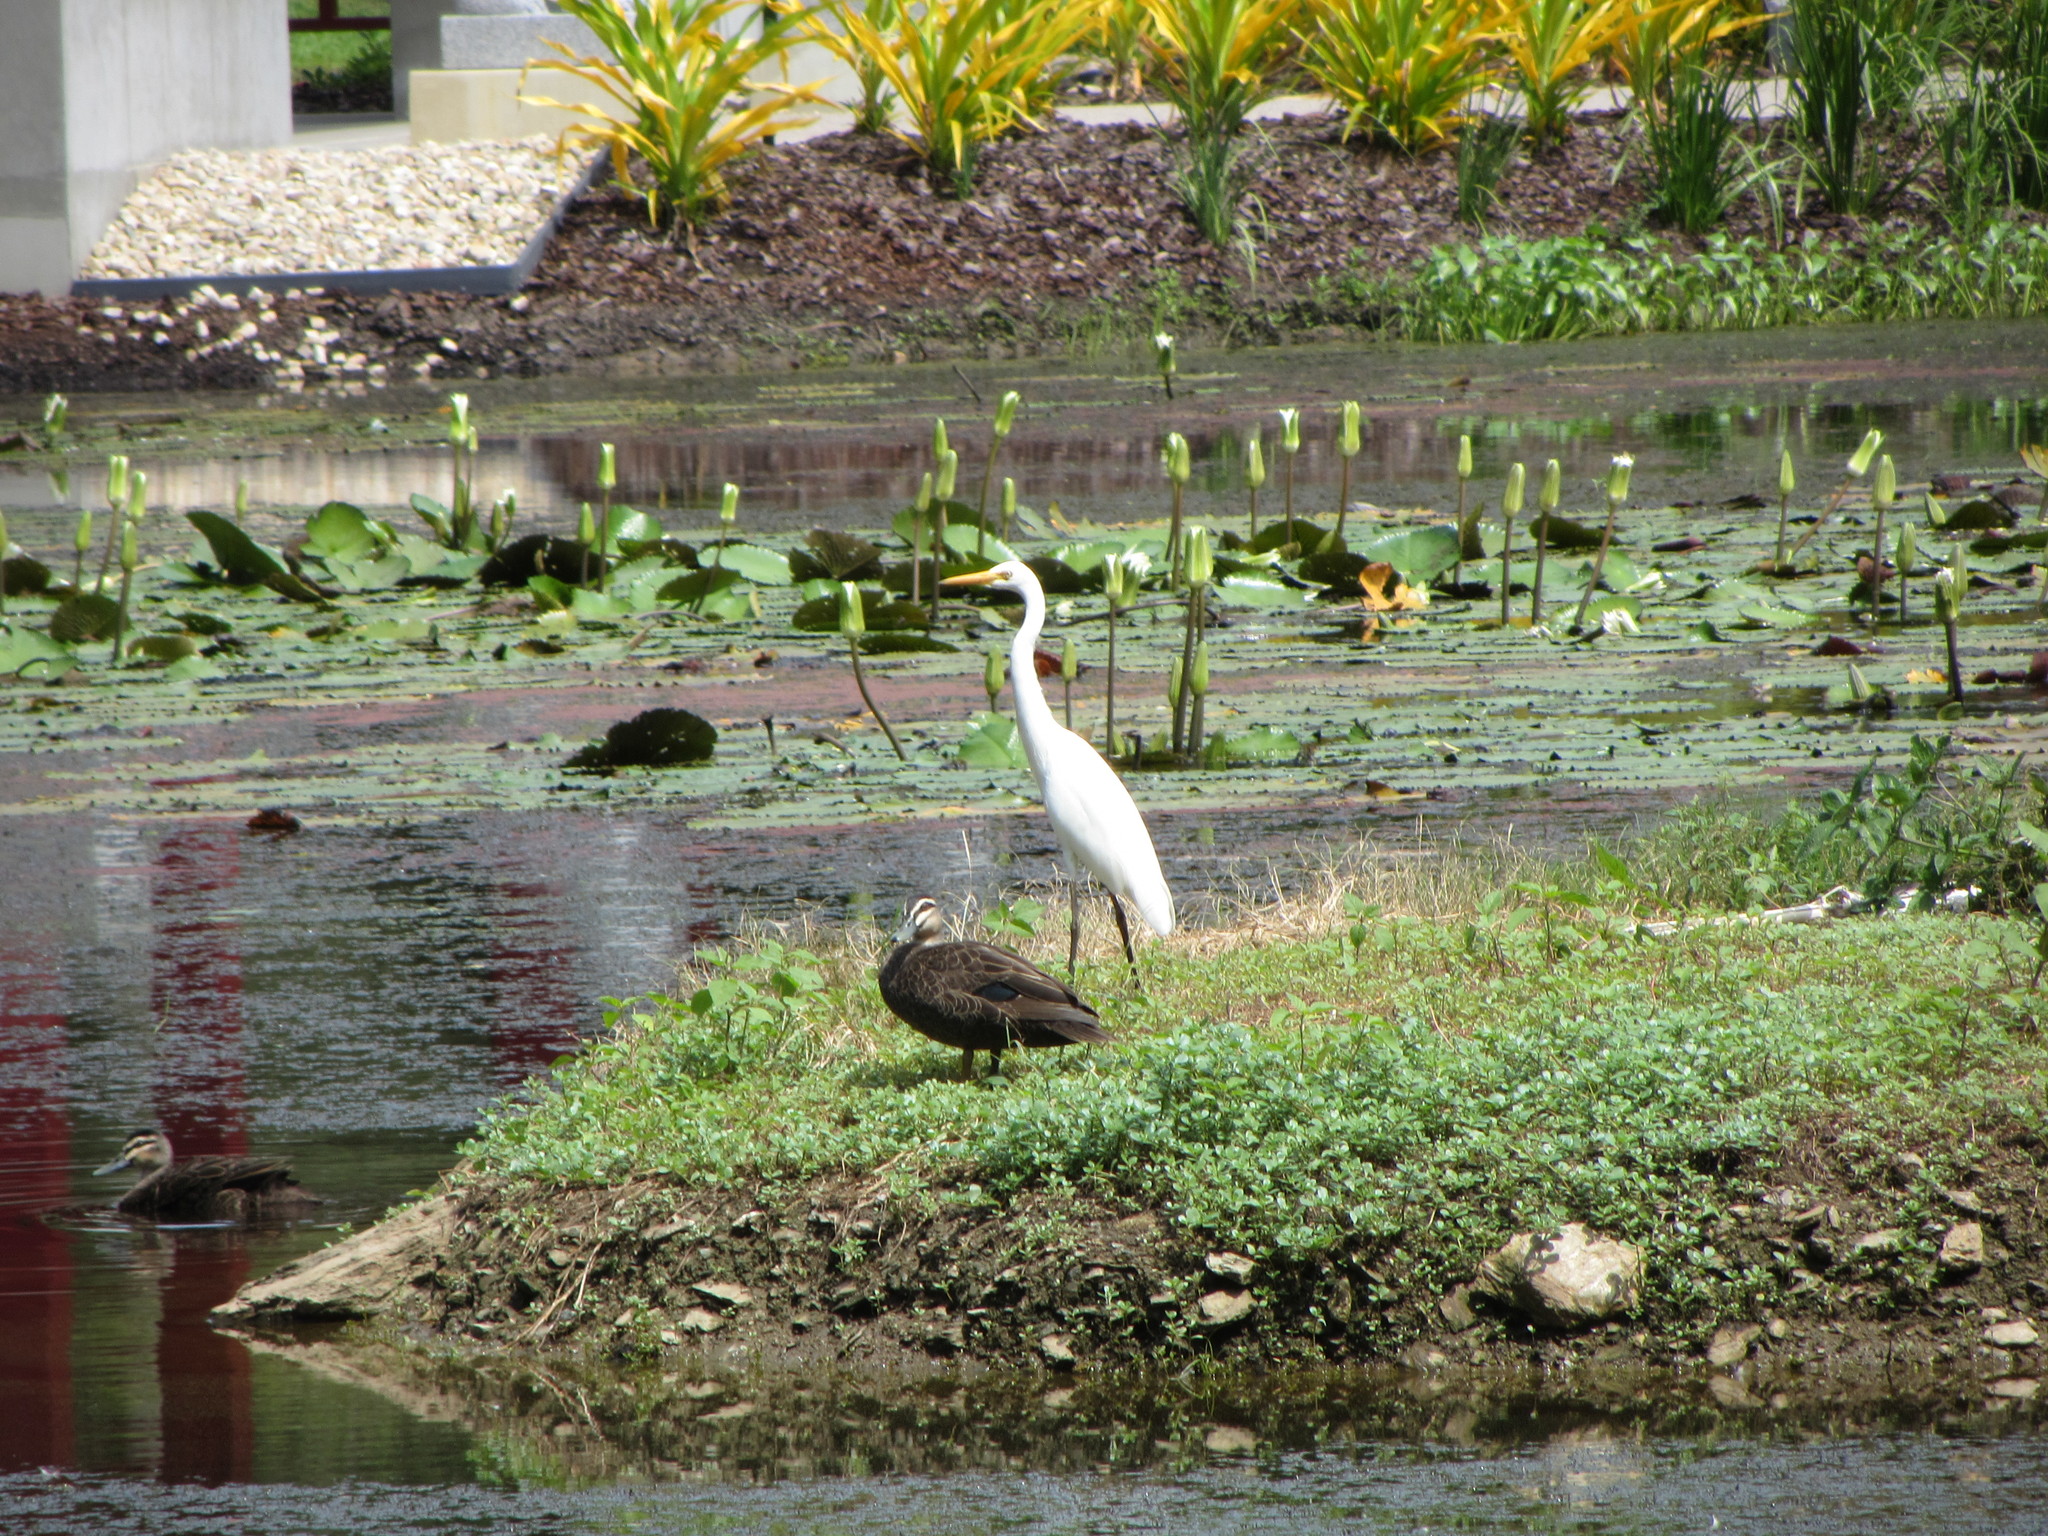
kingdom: Animalia
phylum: Chordata
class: Aves
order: Anseriformes
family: Anatidae
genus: Anas
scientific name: Anas superciliosa
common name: Pacific black duck
